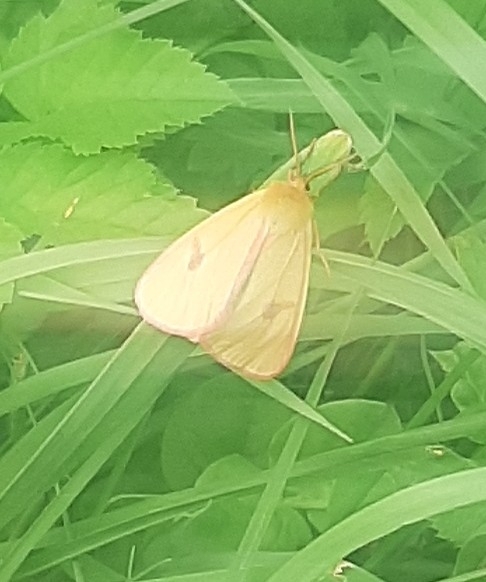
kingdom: Animalia
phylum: Arthropoda
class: Insecta
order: Lepidoptera
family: Erebidae
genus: Diacrisia
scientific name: Diacrisia sannio
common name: Clouded buff
